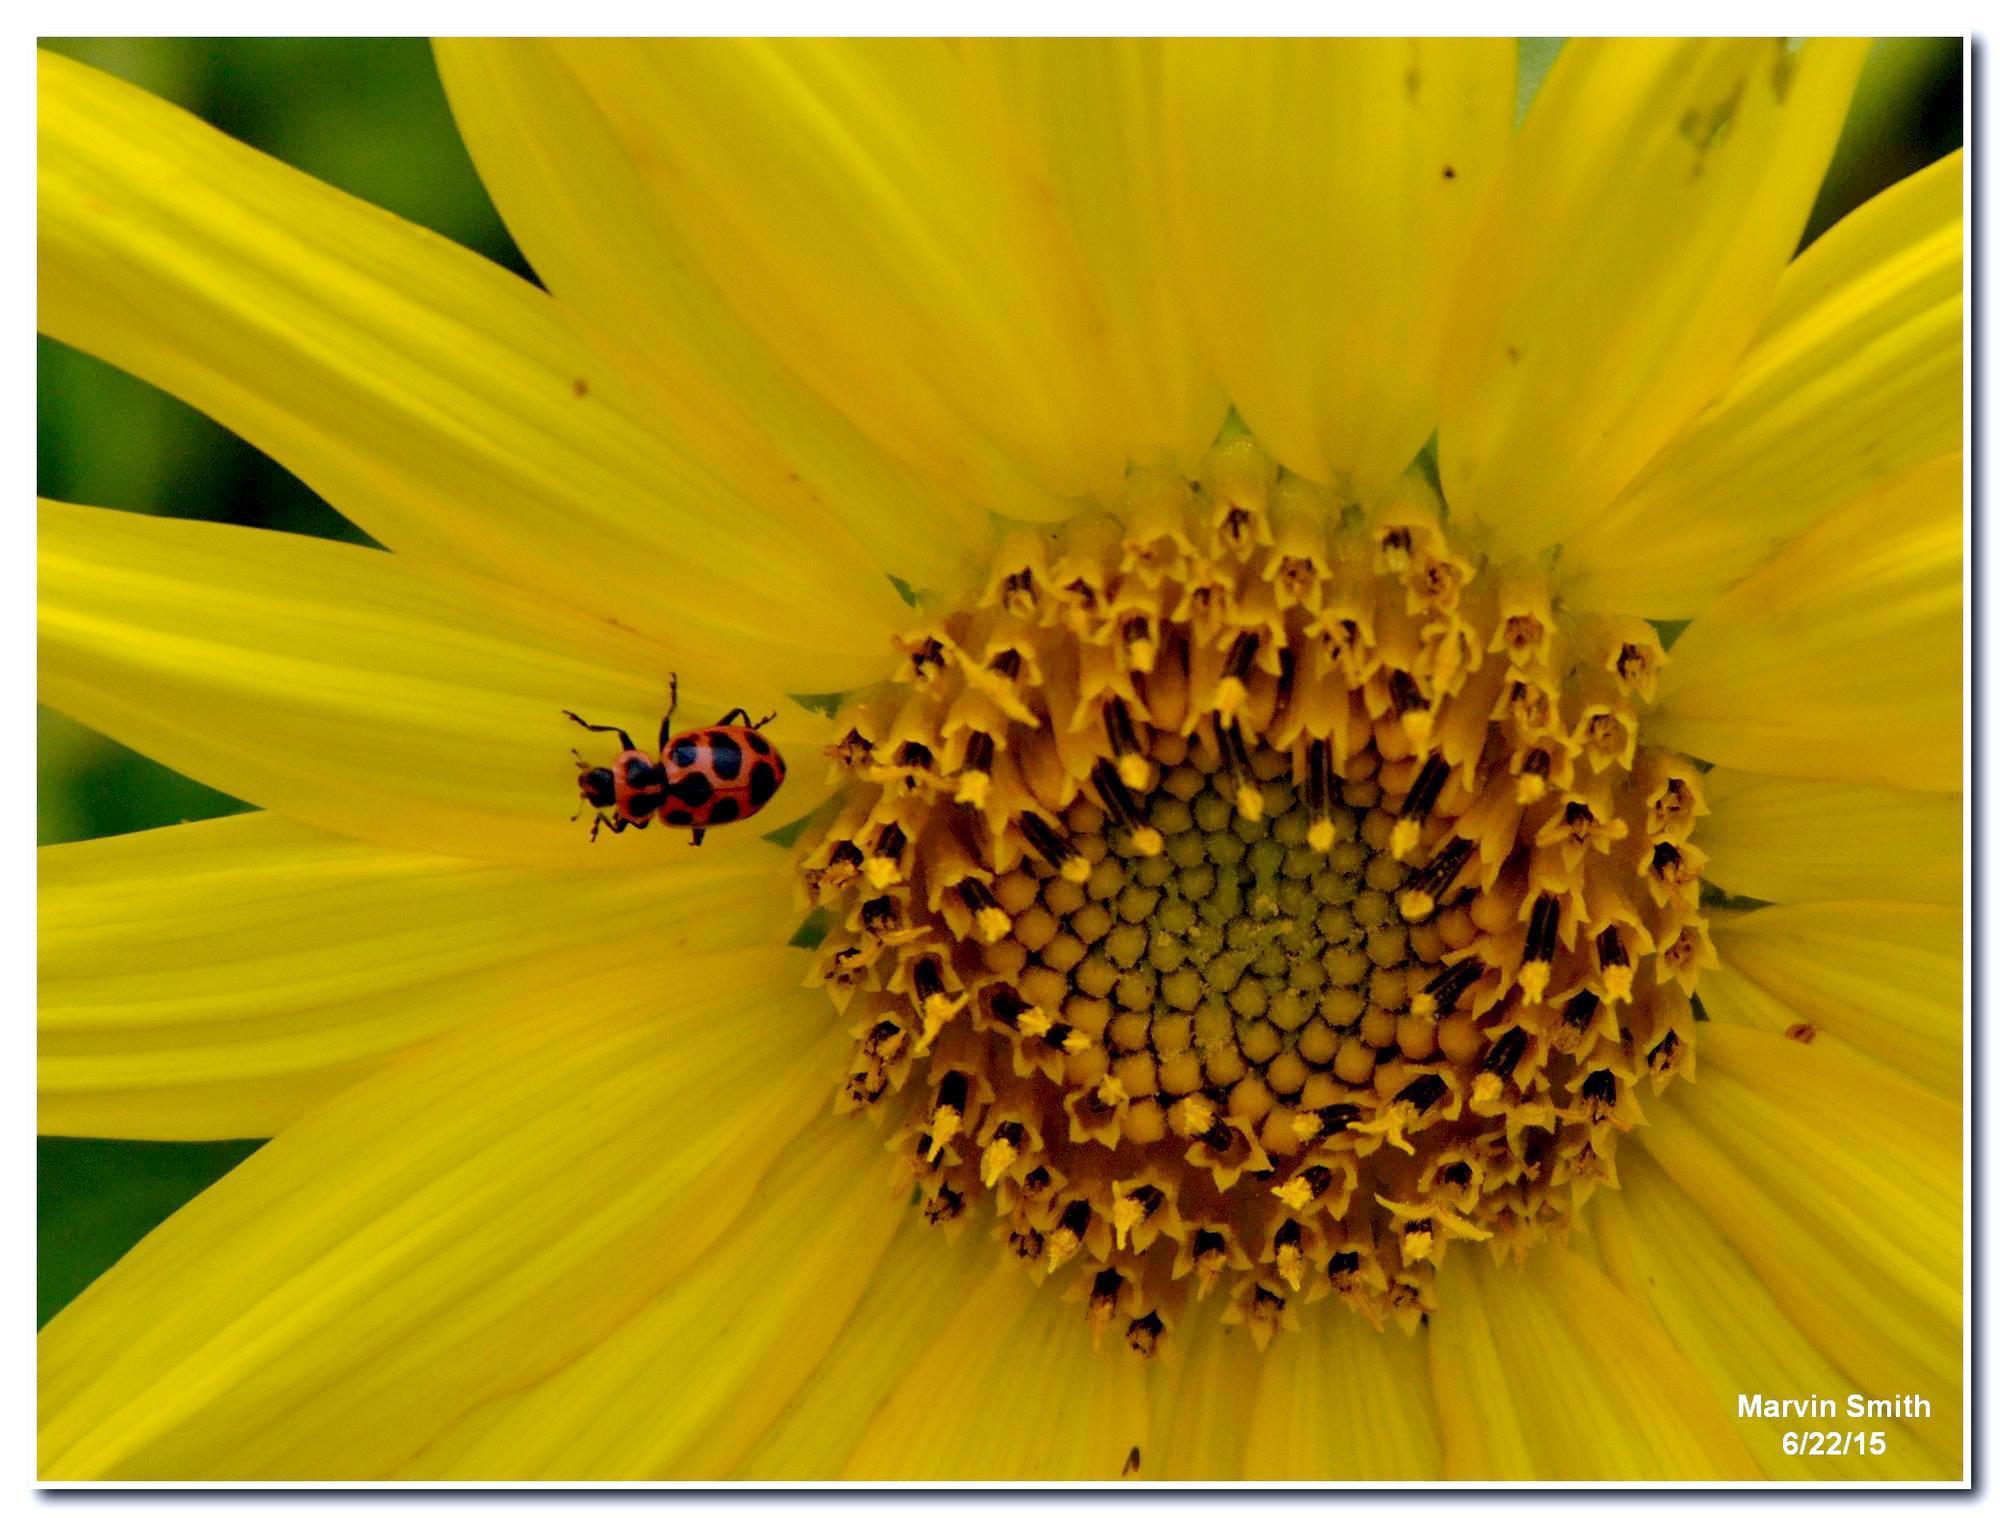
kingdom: Animalia
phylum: Arthropoda
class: Insecta
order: Coleoptera
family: Coccinellidae
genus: Coleomegilla
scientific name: Coleomegilla maculata
